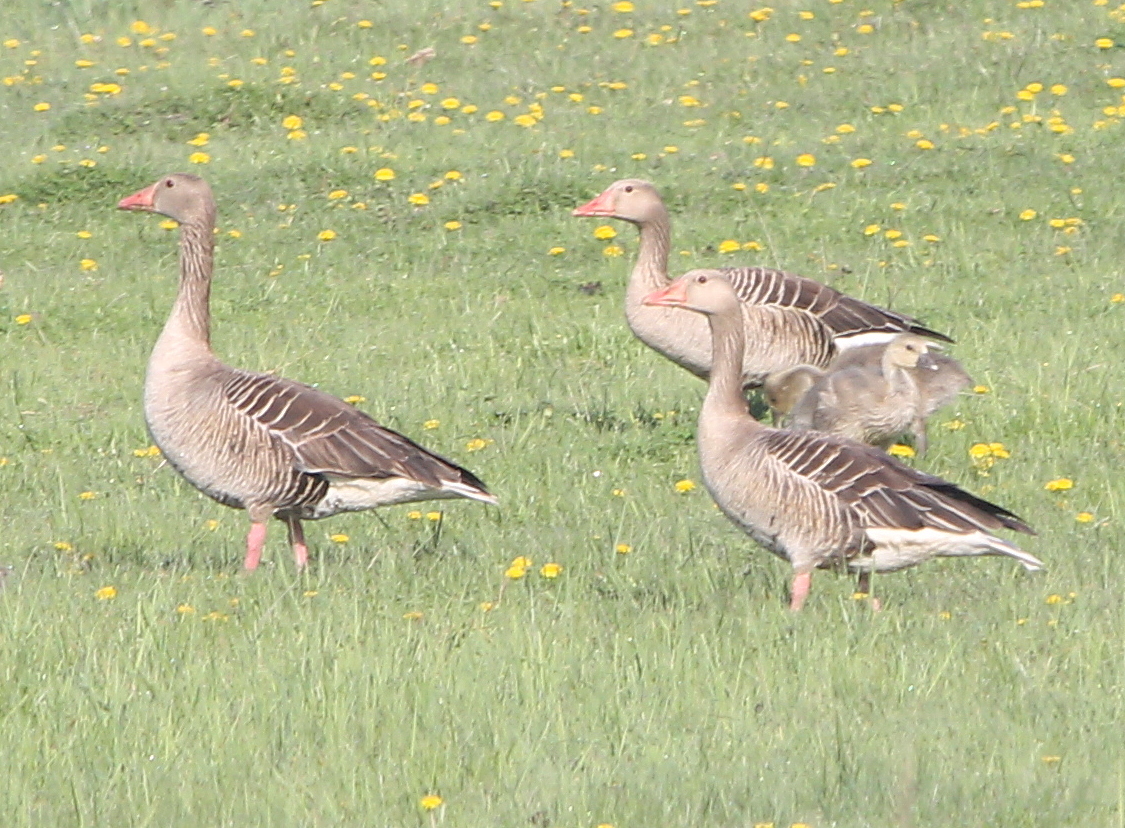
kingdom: Animalia
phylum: Chordata
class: Aves
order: Anseriformes
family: Anatidae
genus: Anser
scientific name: Anser anser
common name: Greylag goose
